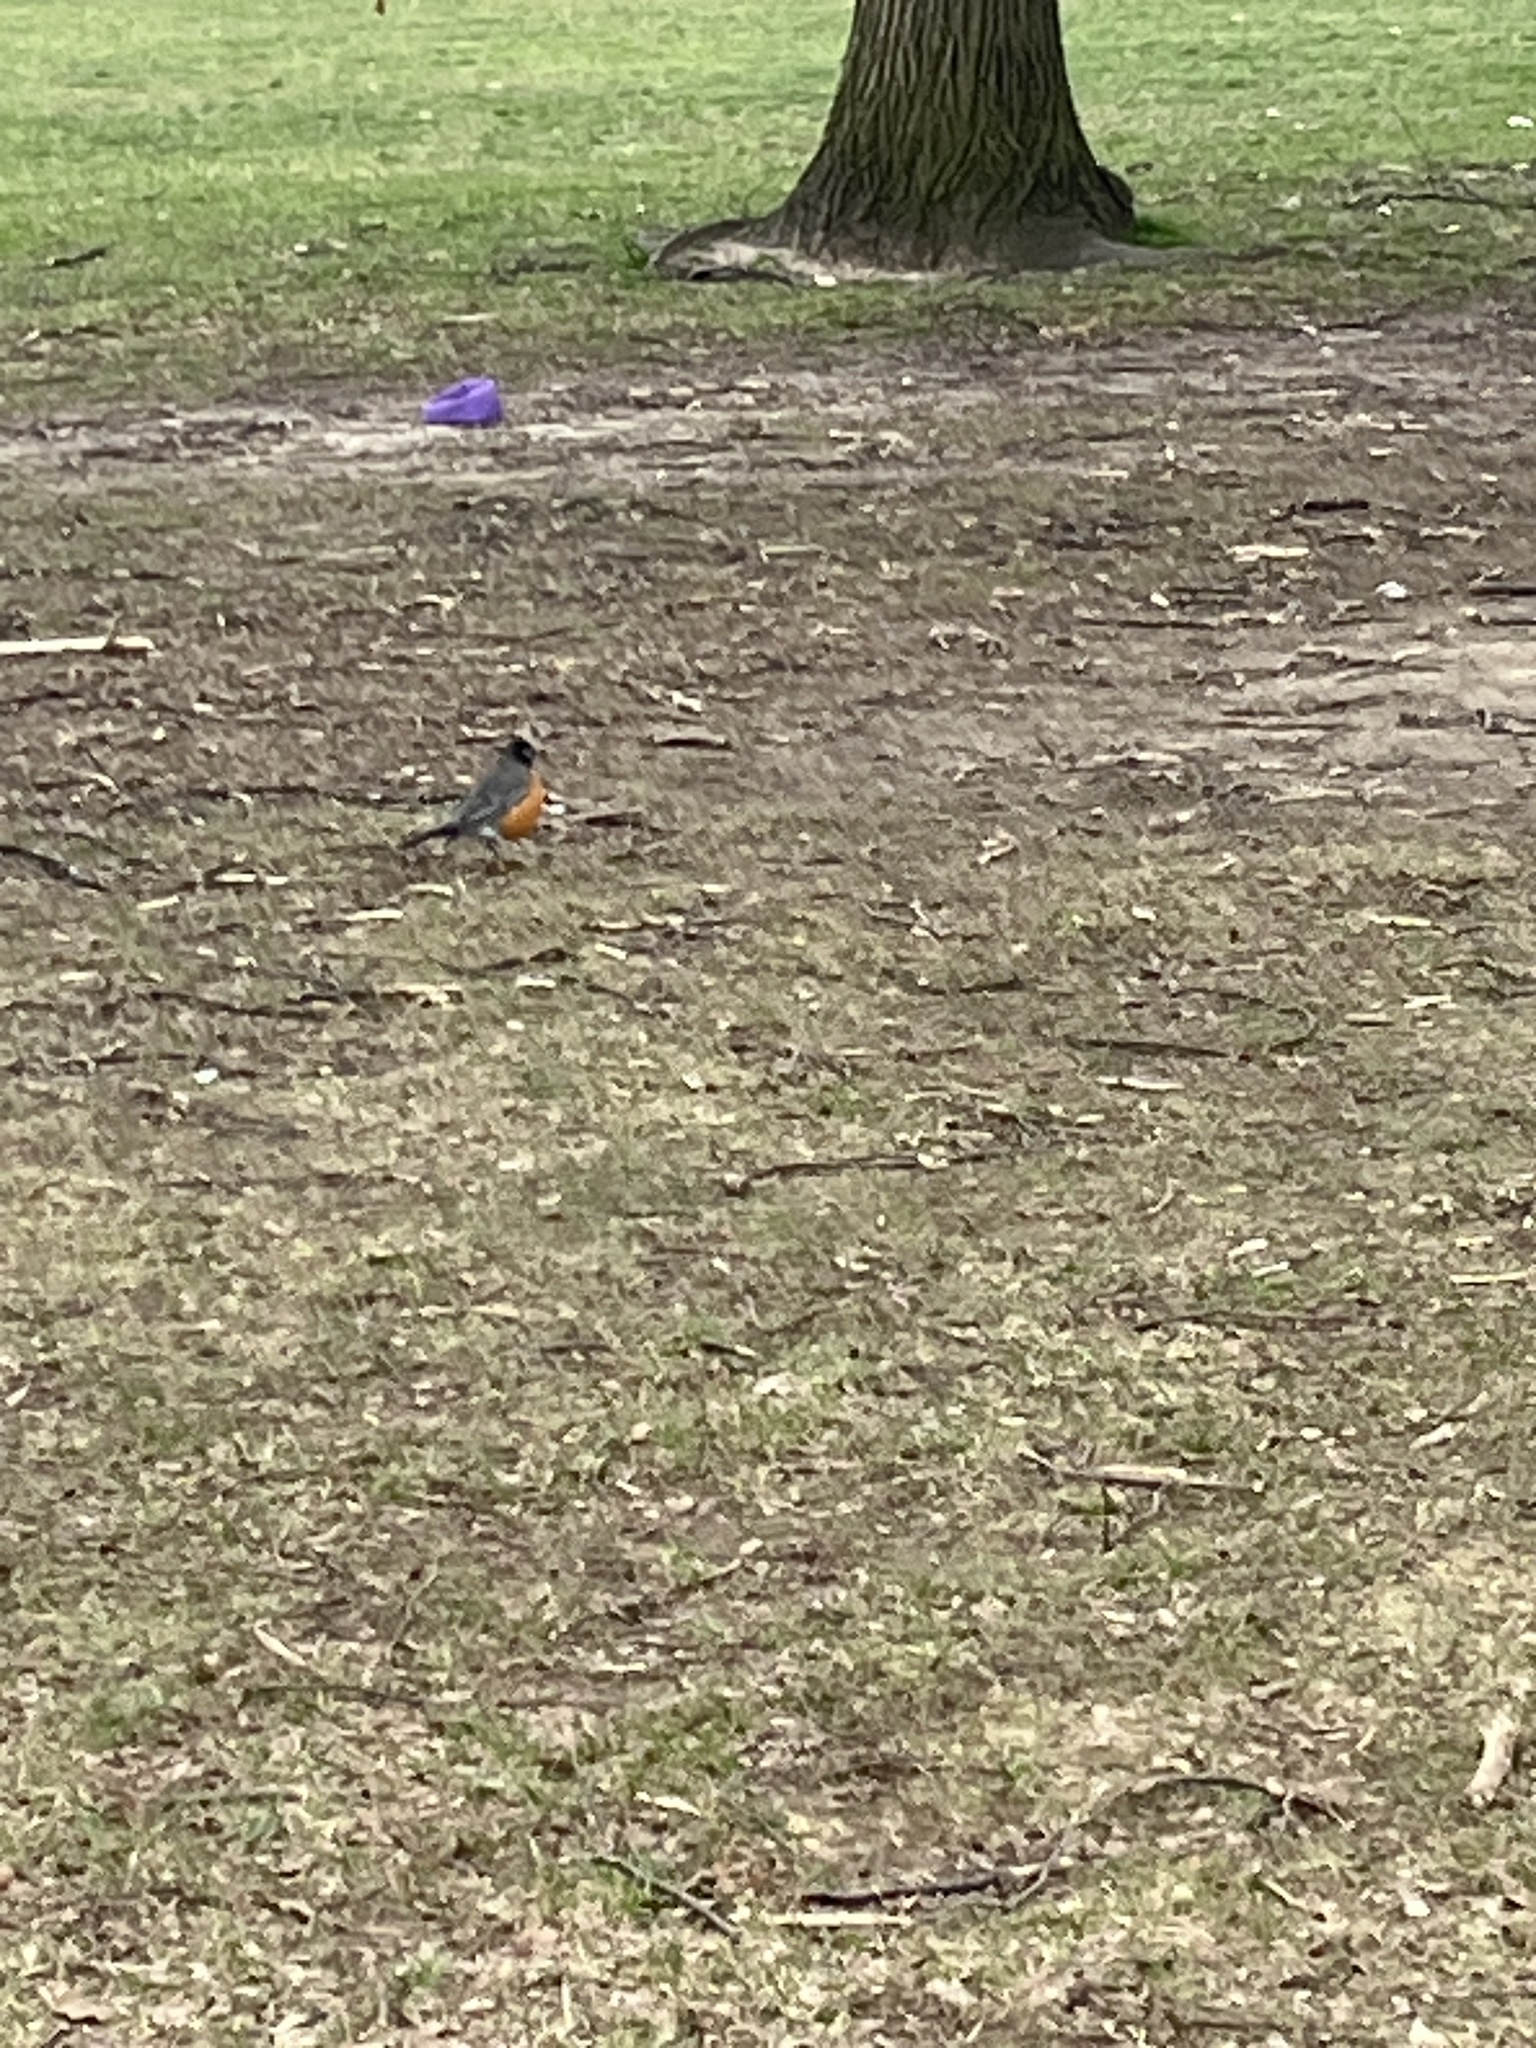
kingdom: Animalia
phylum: Chordata
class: Aves
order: Passeriformes
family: Turdidae
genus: Turdus
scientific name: Turdus migratorius
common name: American robin
